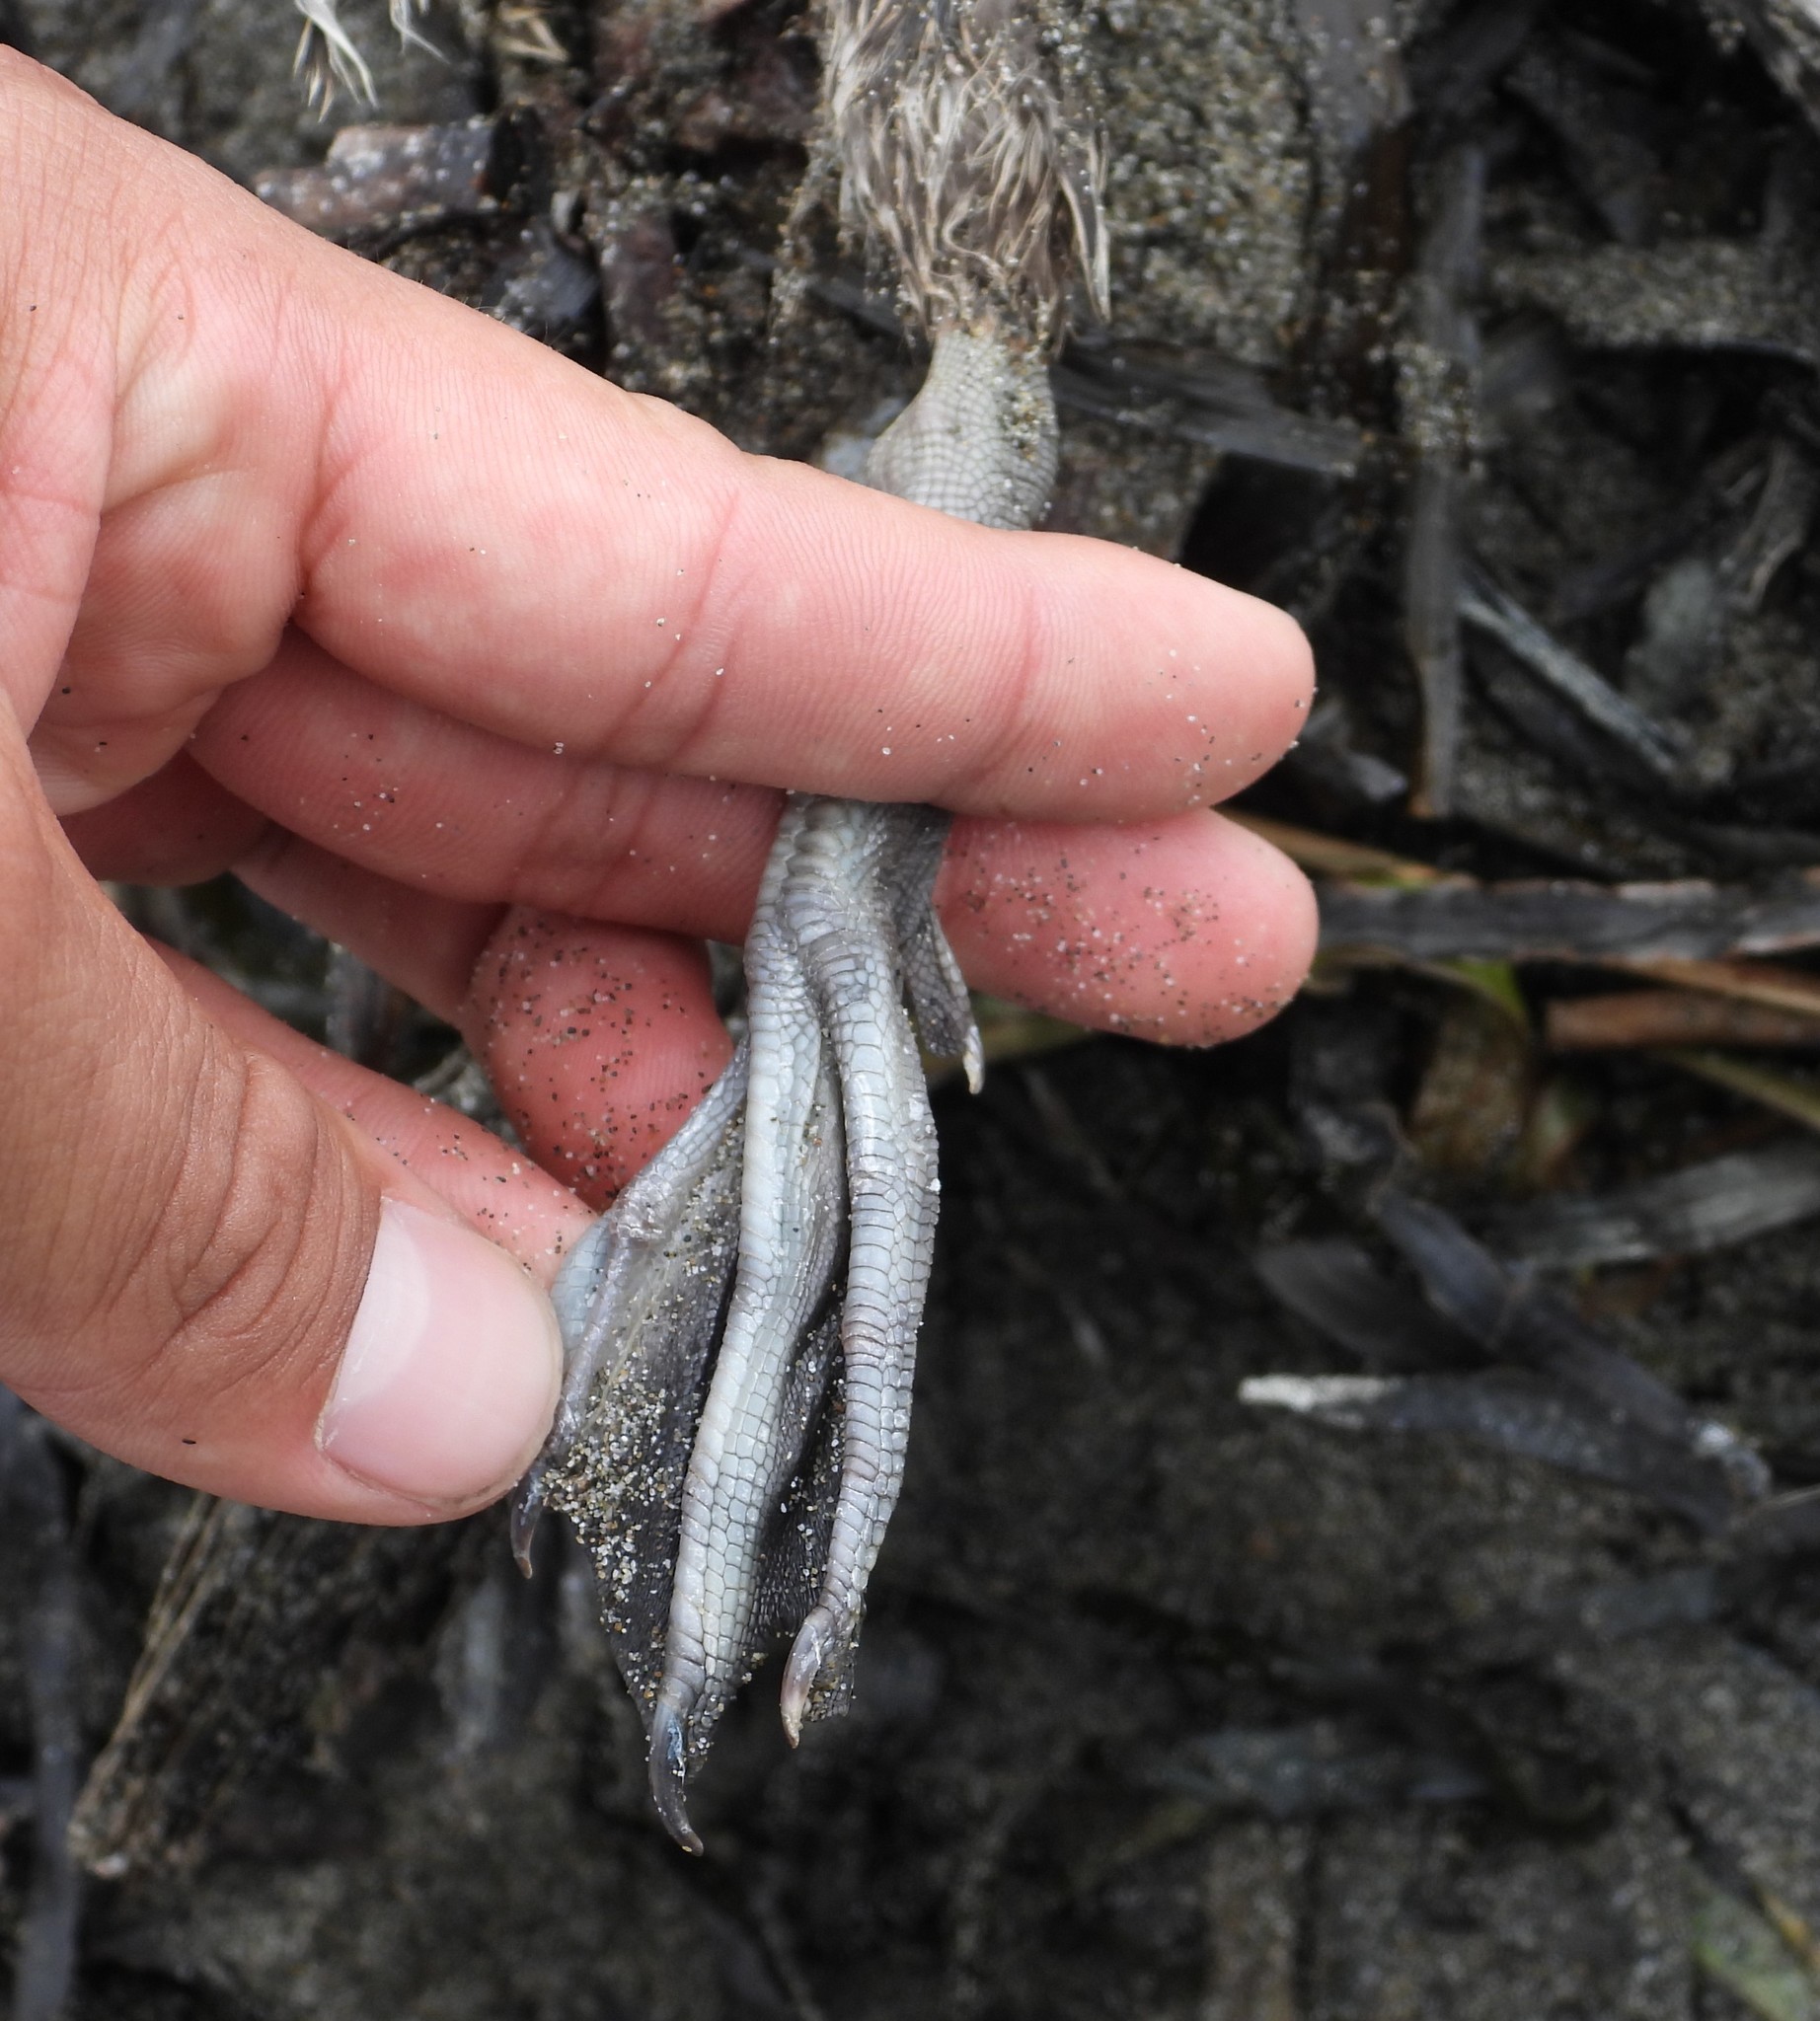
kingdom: Animalia
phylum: Chordata
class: Aves
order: Anseriformes
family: Anatidae
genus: Anas
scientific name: Anas acuta
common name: Northern pintail
